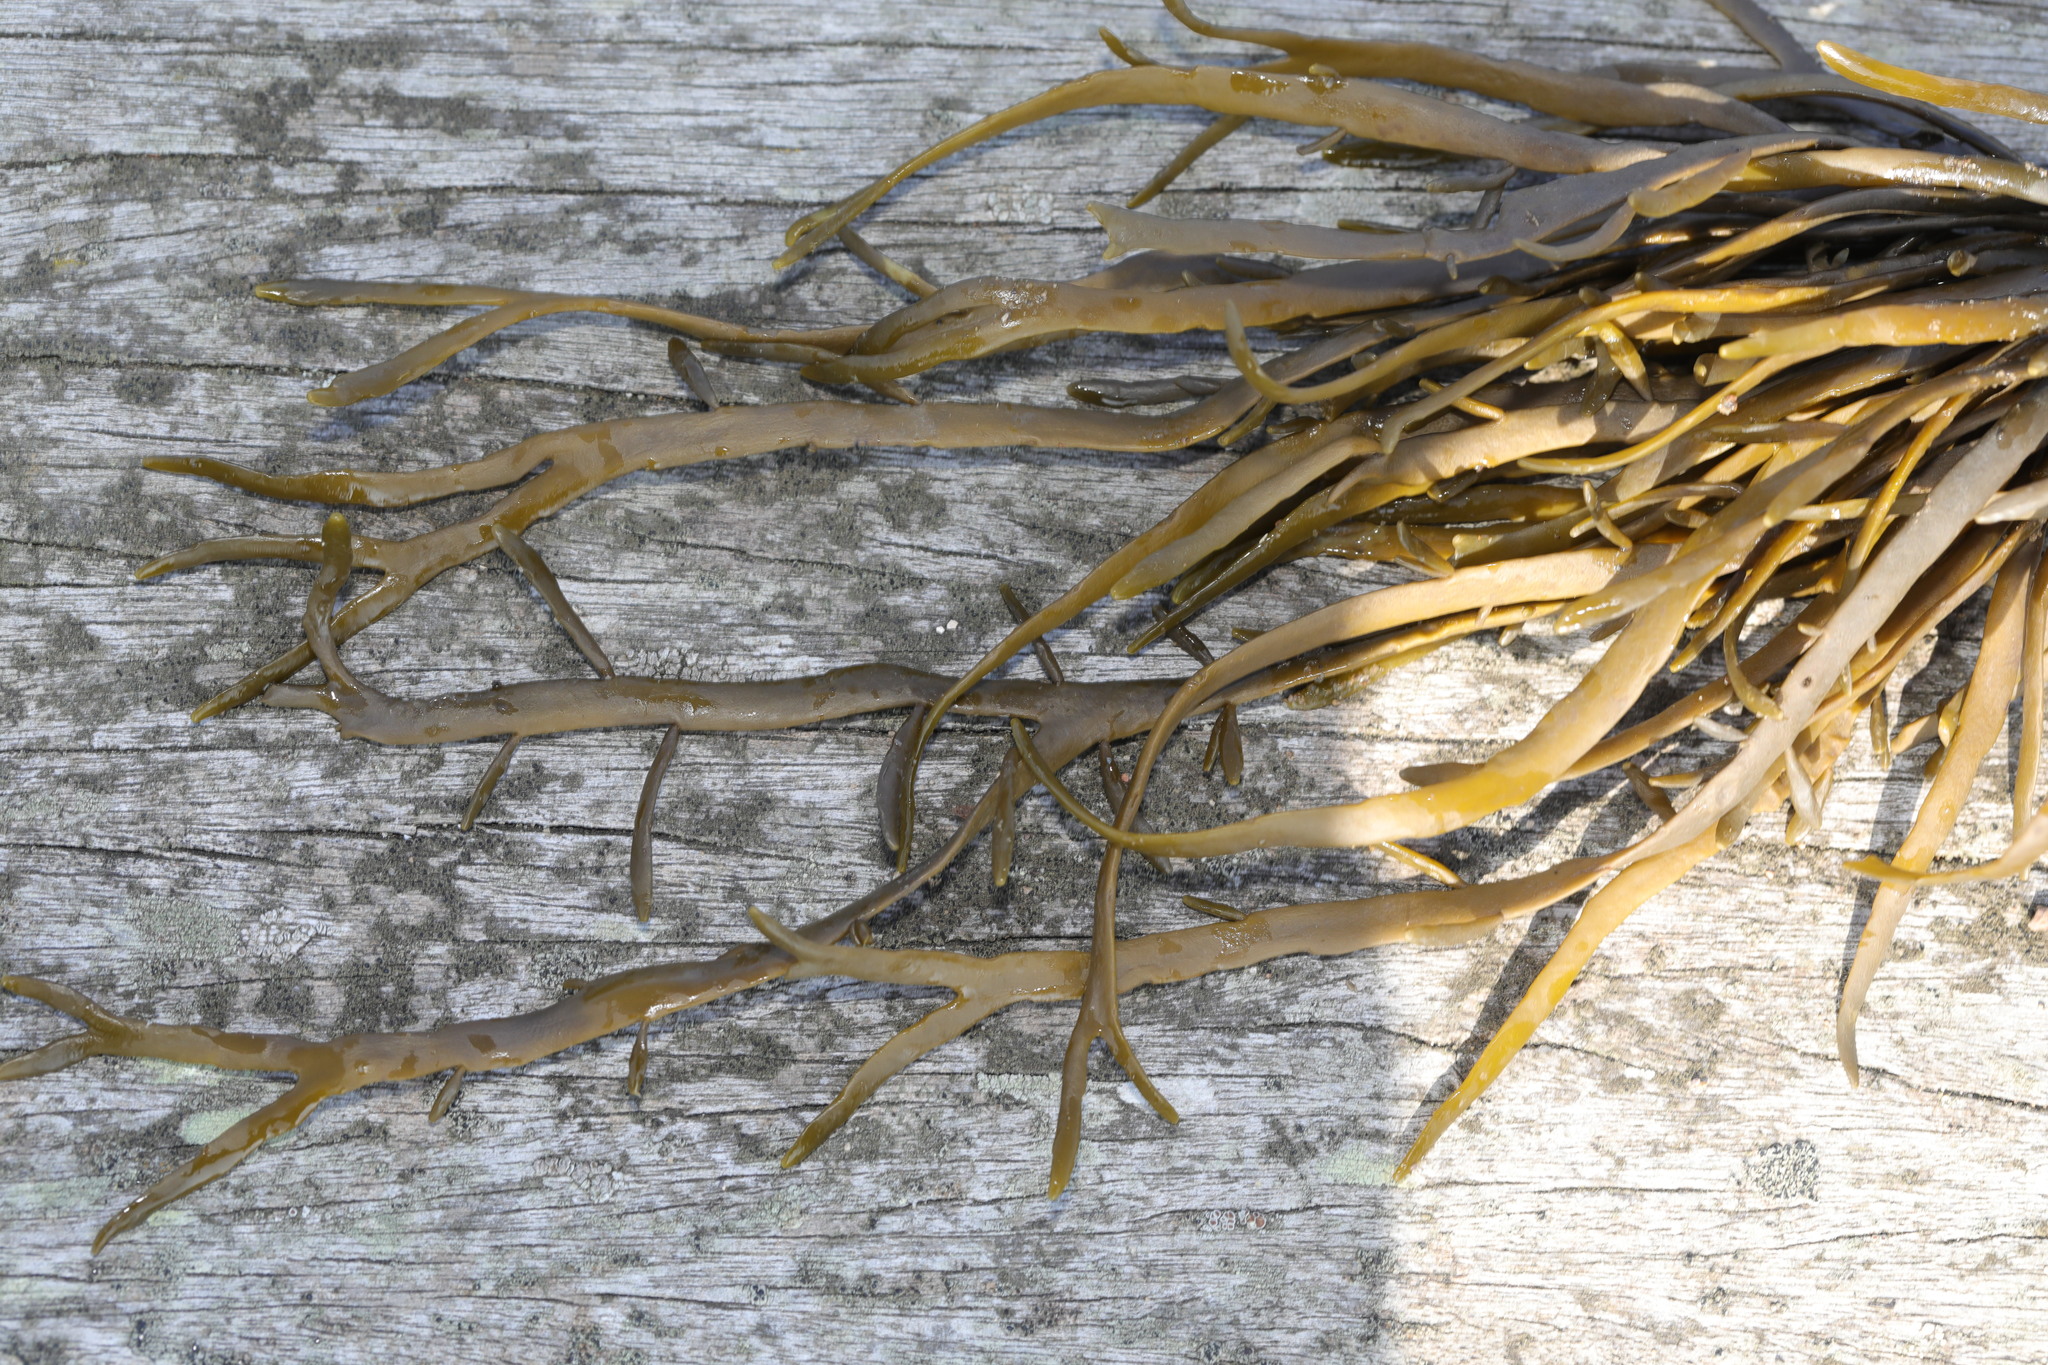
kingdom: Chromista
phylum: Ochrophyta
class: Phaeophyceae
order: Fucales
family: Fucaceae
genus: Ascophyllum
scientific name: Ascophyllum nodosum
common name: Knotted wrack
